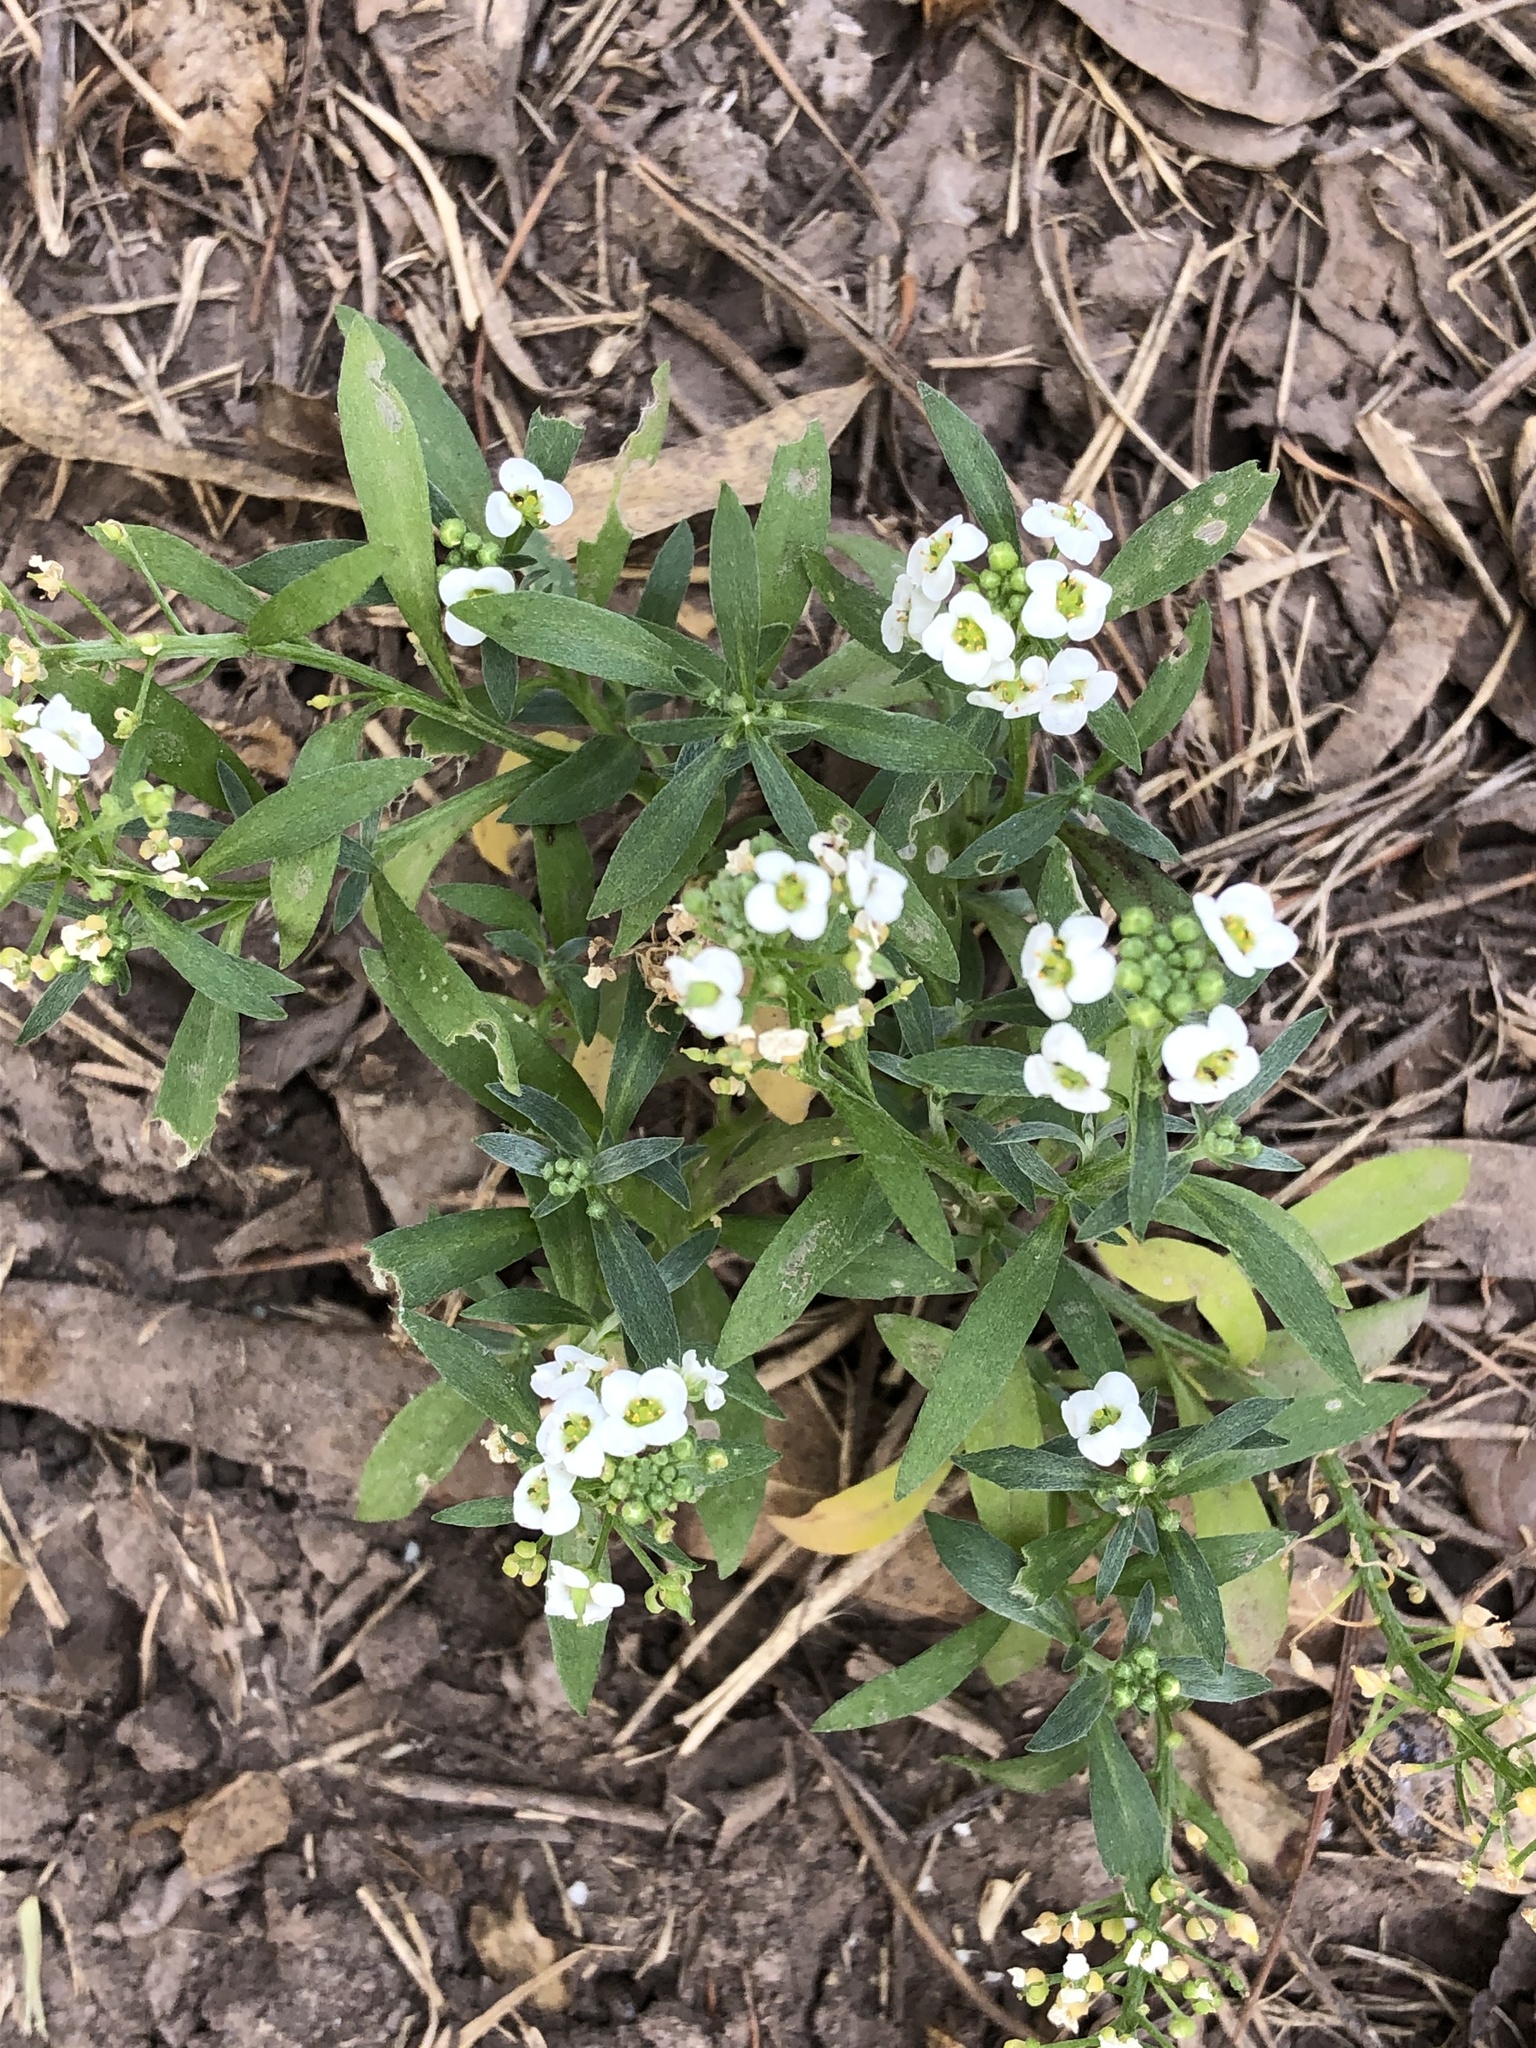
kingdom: Plantae
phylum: Tracheophyta
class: Magnoliopsida
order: Brassicales
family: Brassicaceae
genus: Lobularia
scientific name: Lobularia maritima
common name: Sweet alison
